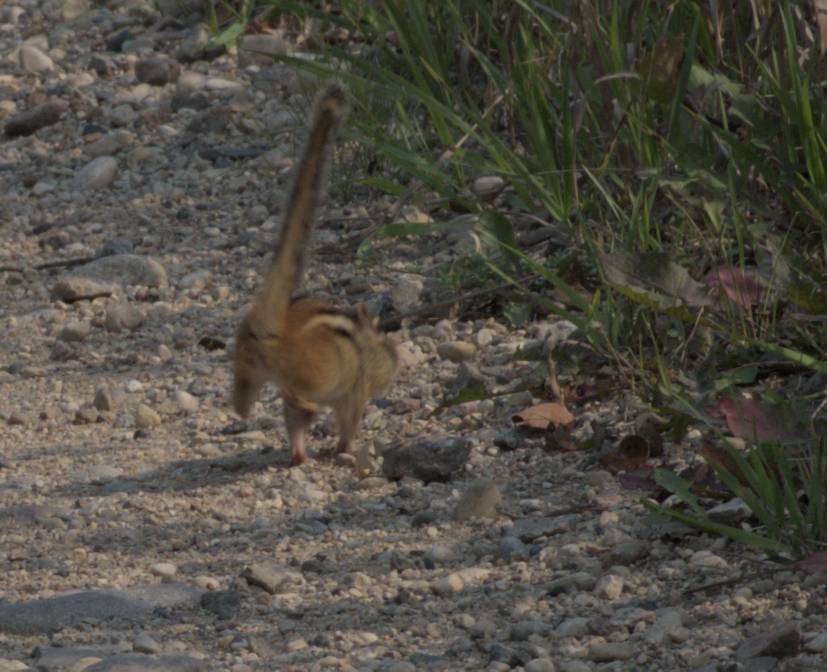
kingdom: Animalia
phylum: Chordata
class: Mammalia
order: Rodentia
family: Sciuridae
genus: Tamias
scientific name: Tamias striatus
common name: Eastern chipmunk
